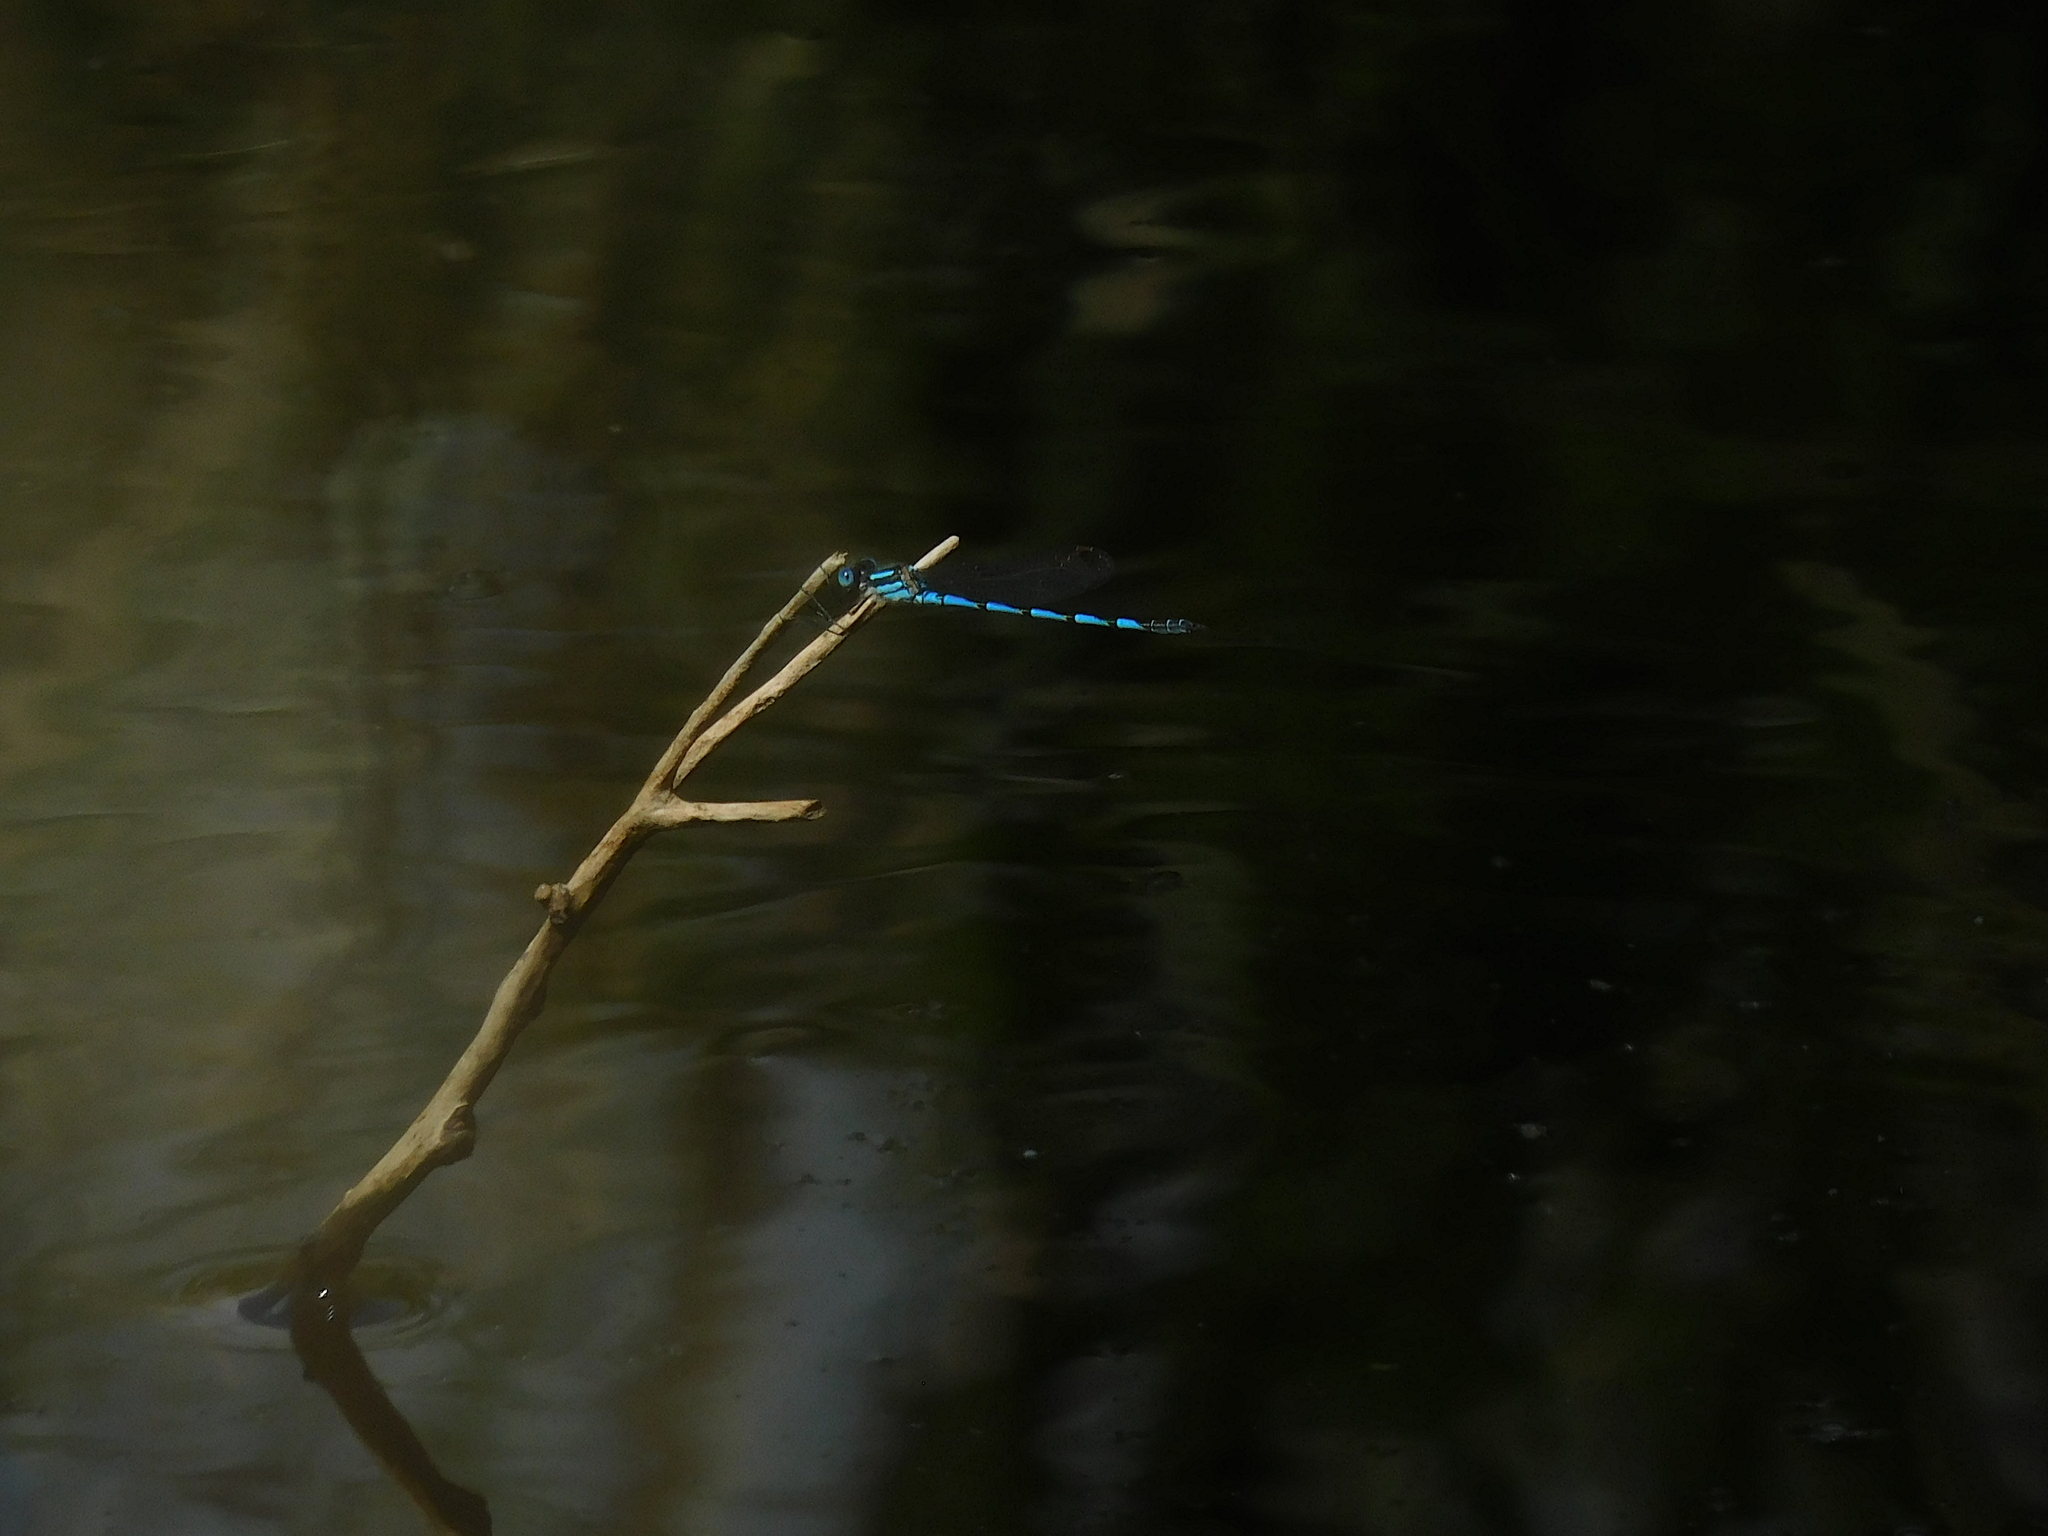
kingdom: Animalia
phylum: Arthropoda
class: Insecta
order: Odonata
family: Lestidae
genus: Austrolestes
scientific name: Austrolestes annulosus
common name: Blue ringtail
